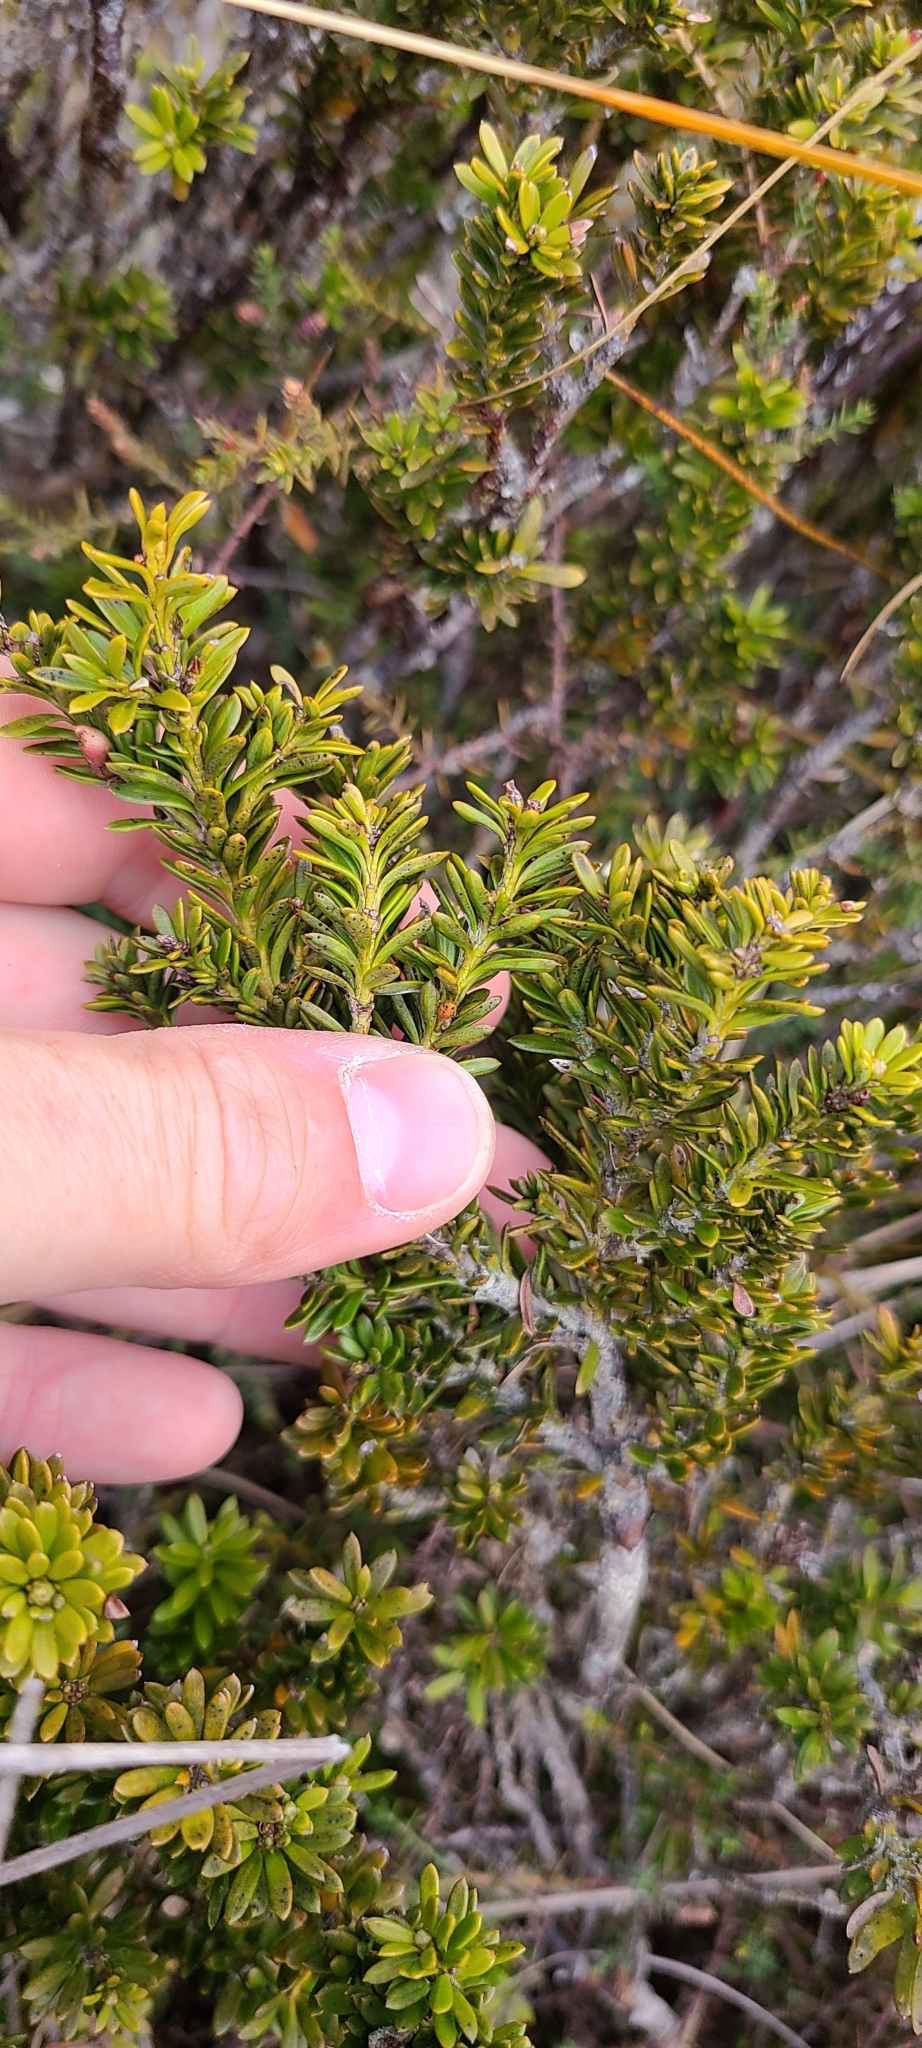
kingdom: Plantae
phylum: Tracheophyta
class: Pinopsida
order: Pinales
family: Podocarpaceae
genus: Podocarpus
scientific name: Podocarpus nivalis
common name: Alpine totara
